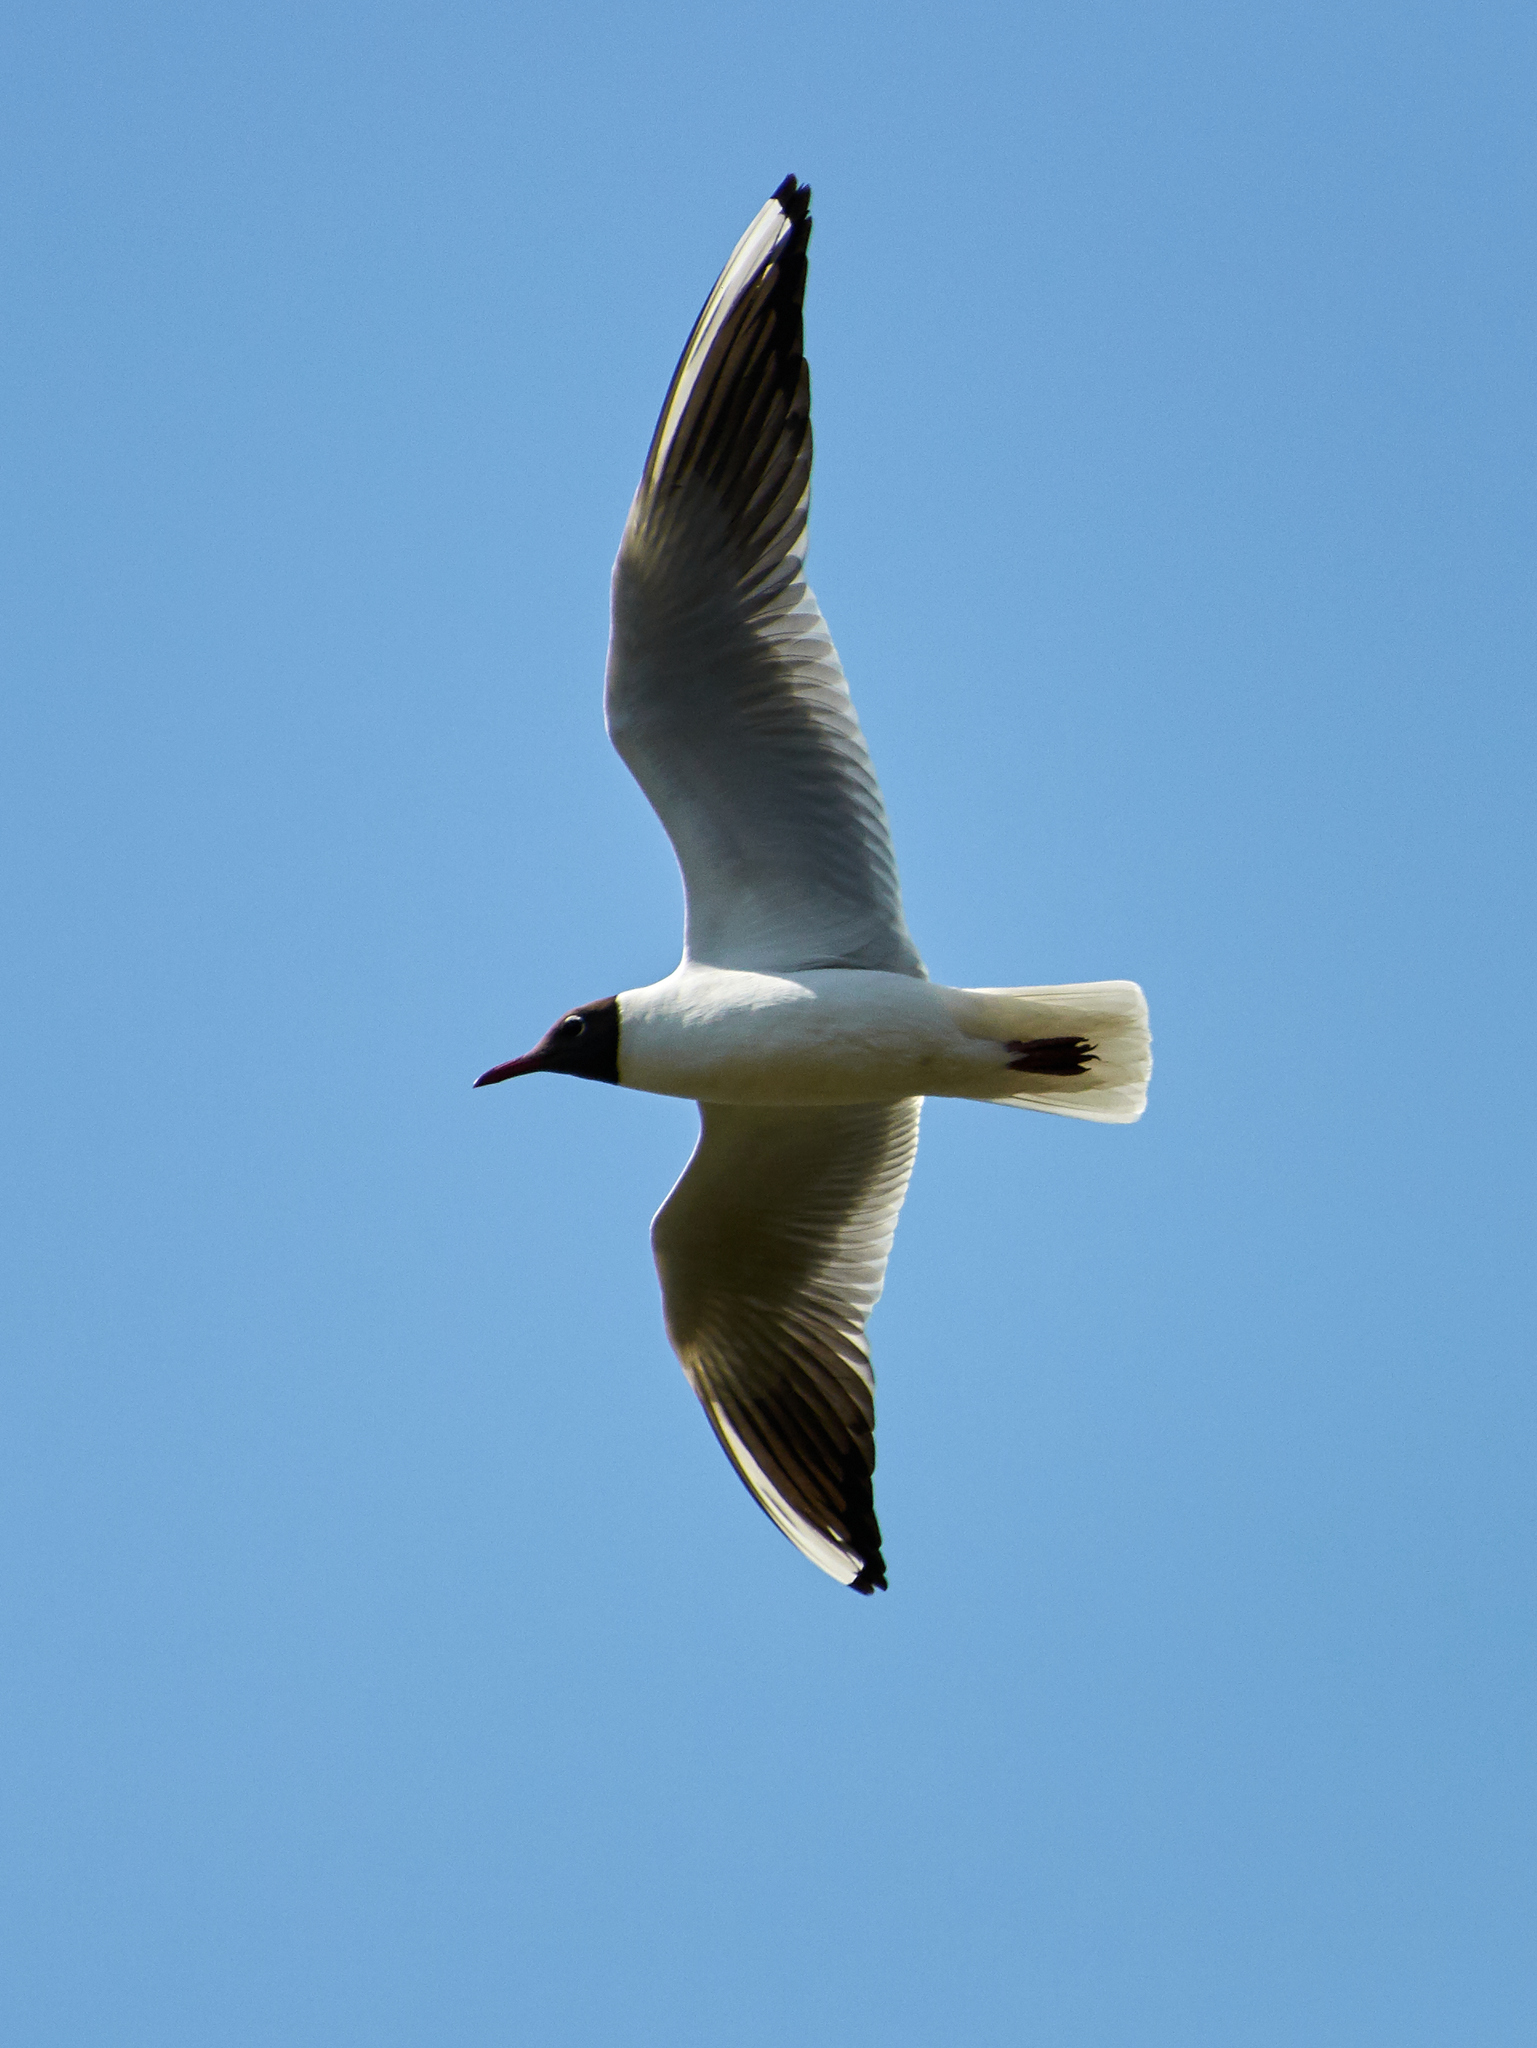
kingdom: Animalia
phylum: Chordata
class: Aves
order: Charadriiformes
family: Laridae
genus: Chroicocephalus
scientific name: Chroicocephalus ridibundus
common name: Black-headed gull
